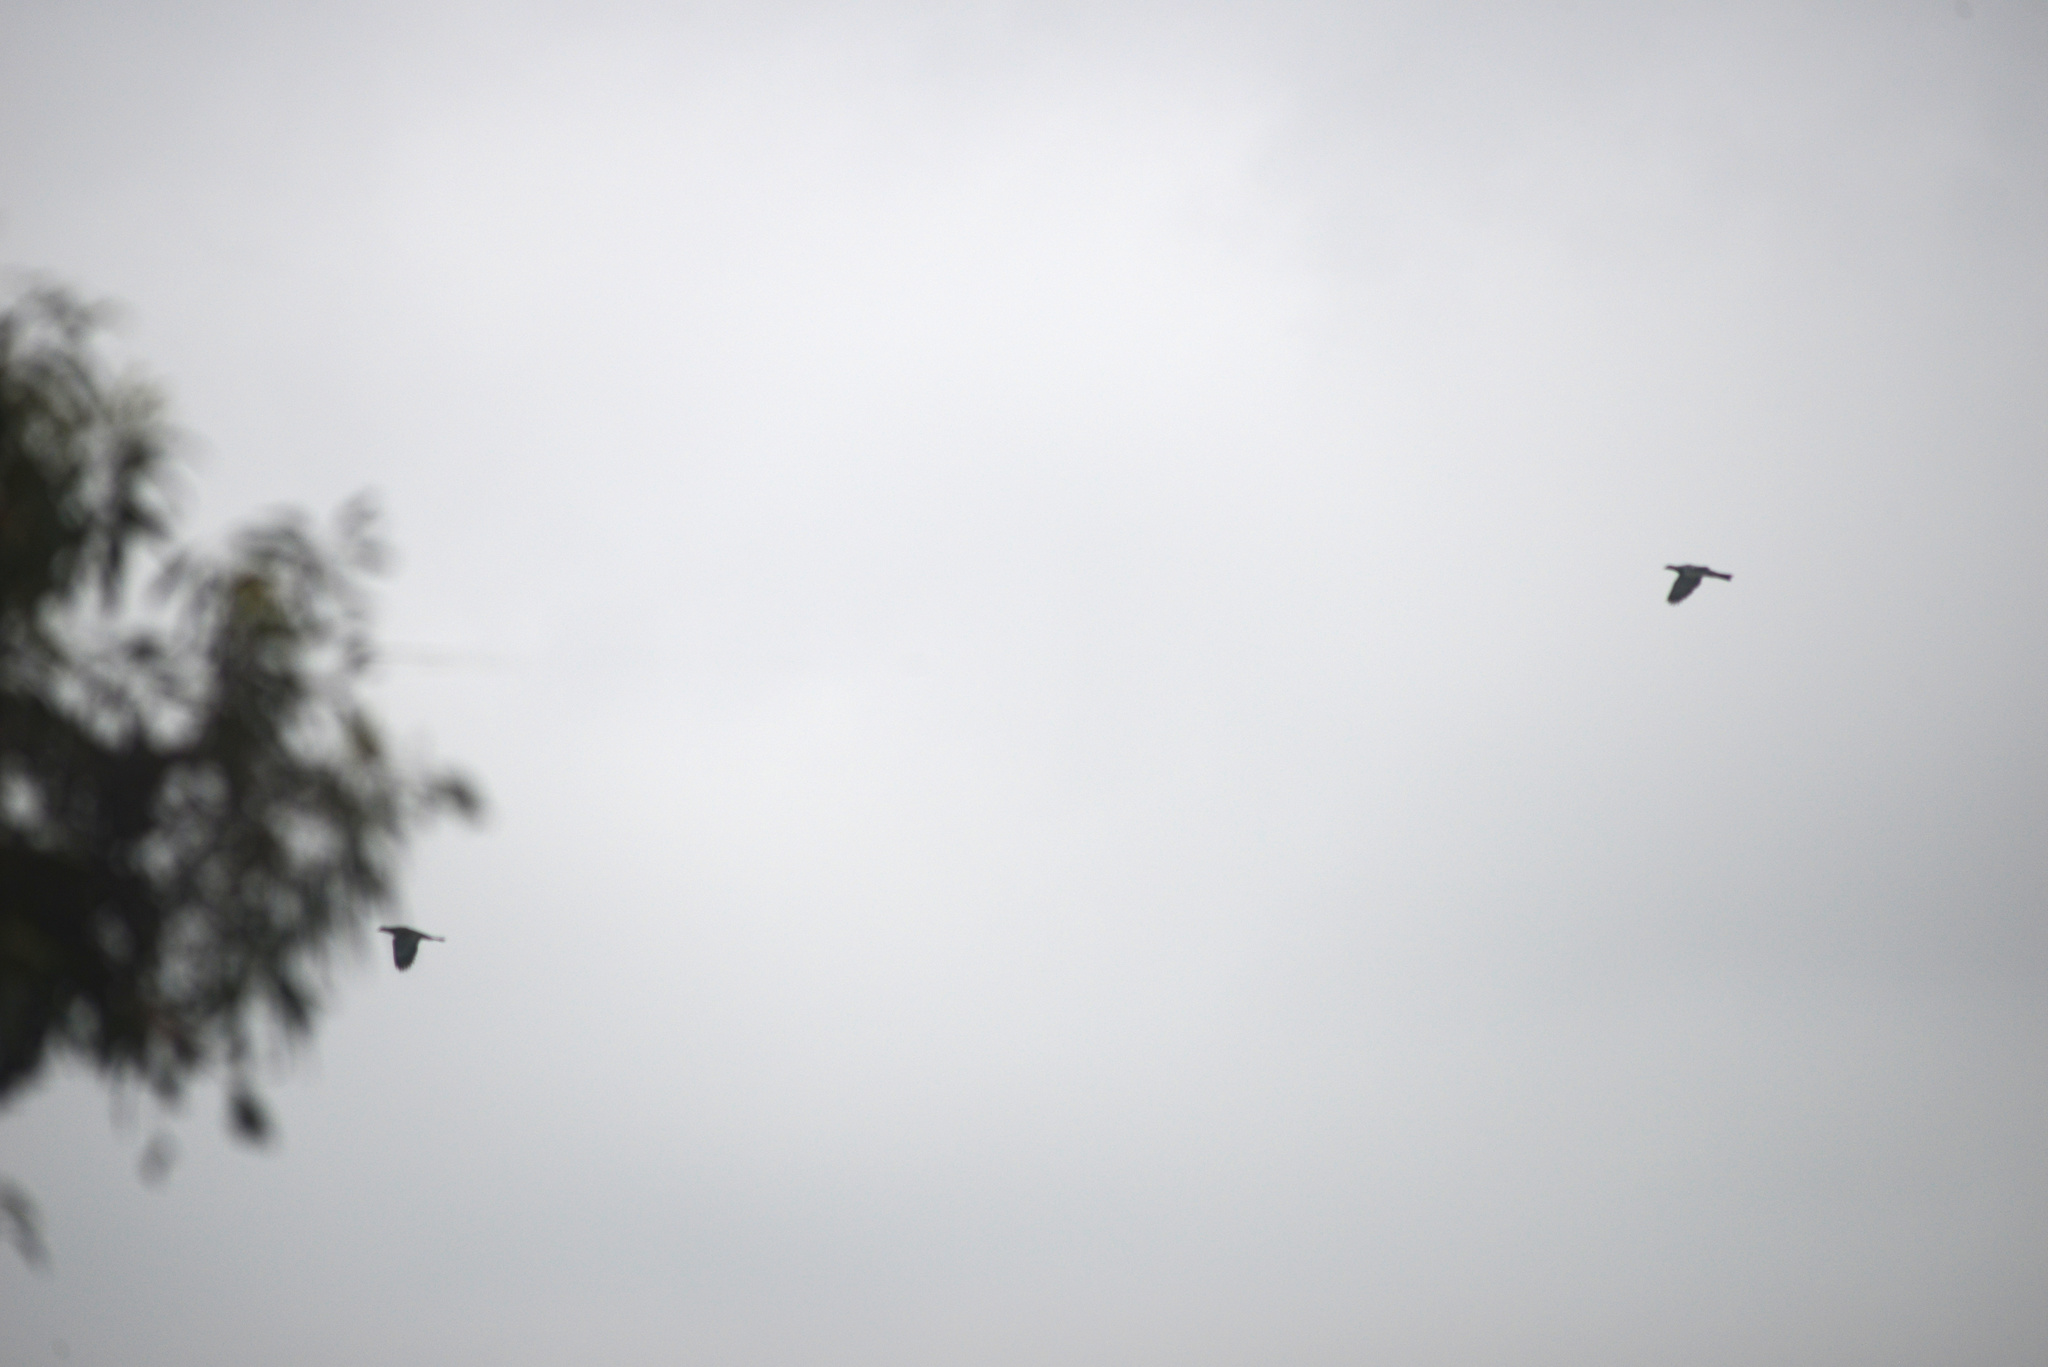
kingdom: Animalia
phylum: Chordata
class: Aves
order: Columbiformes
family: Columbidae
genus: Hemiphaga
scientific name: Hemiphaga novaeseelandiae
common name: New zealand pigeon
